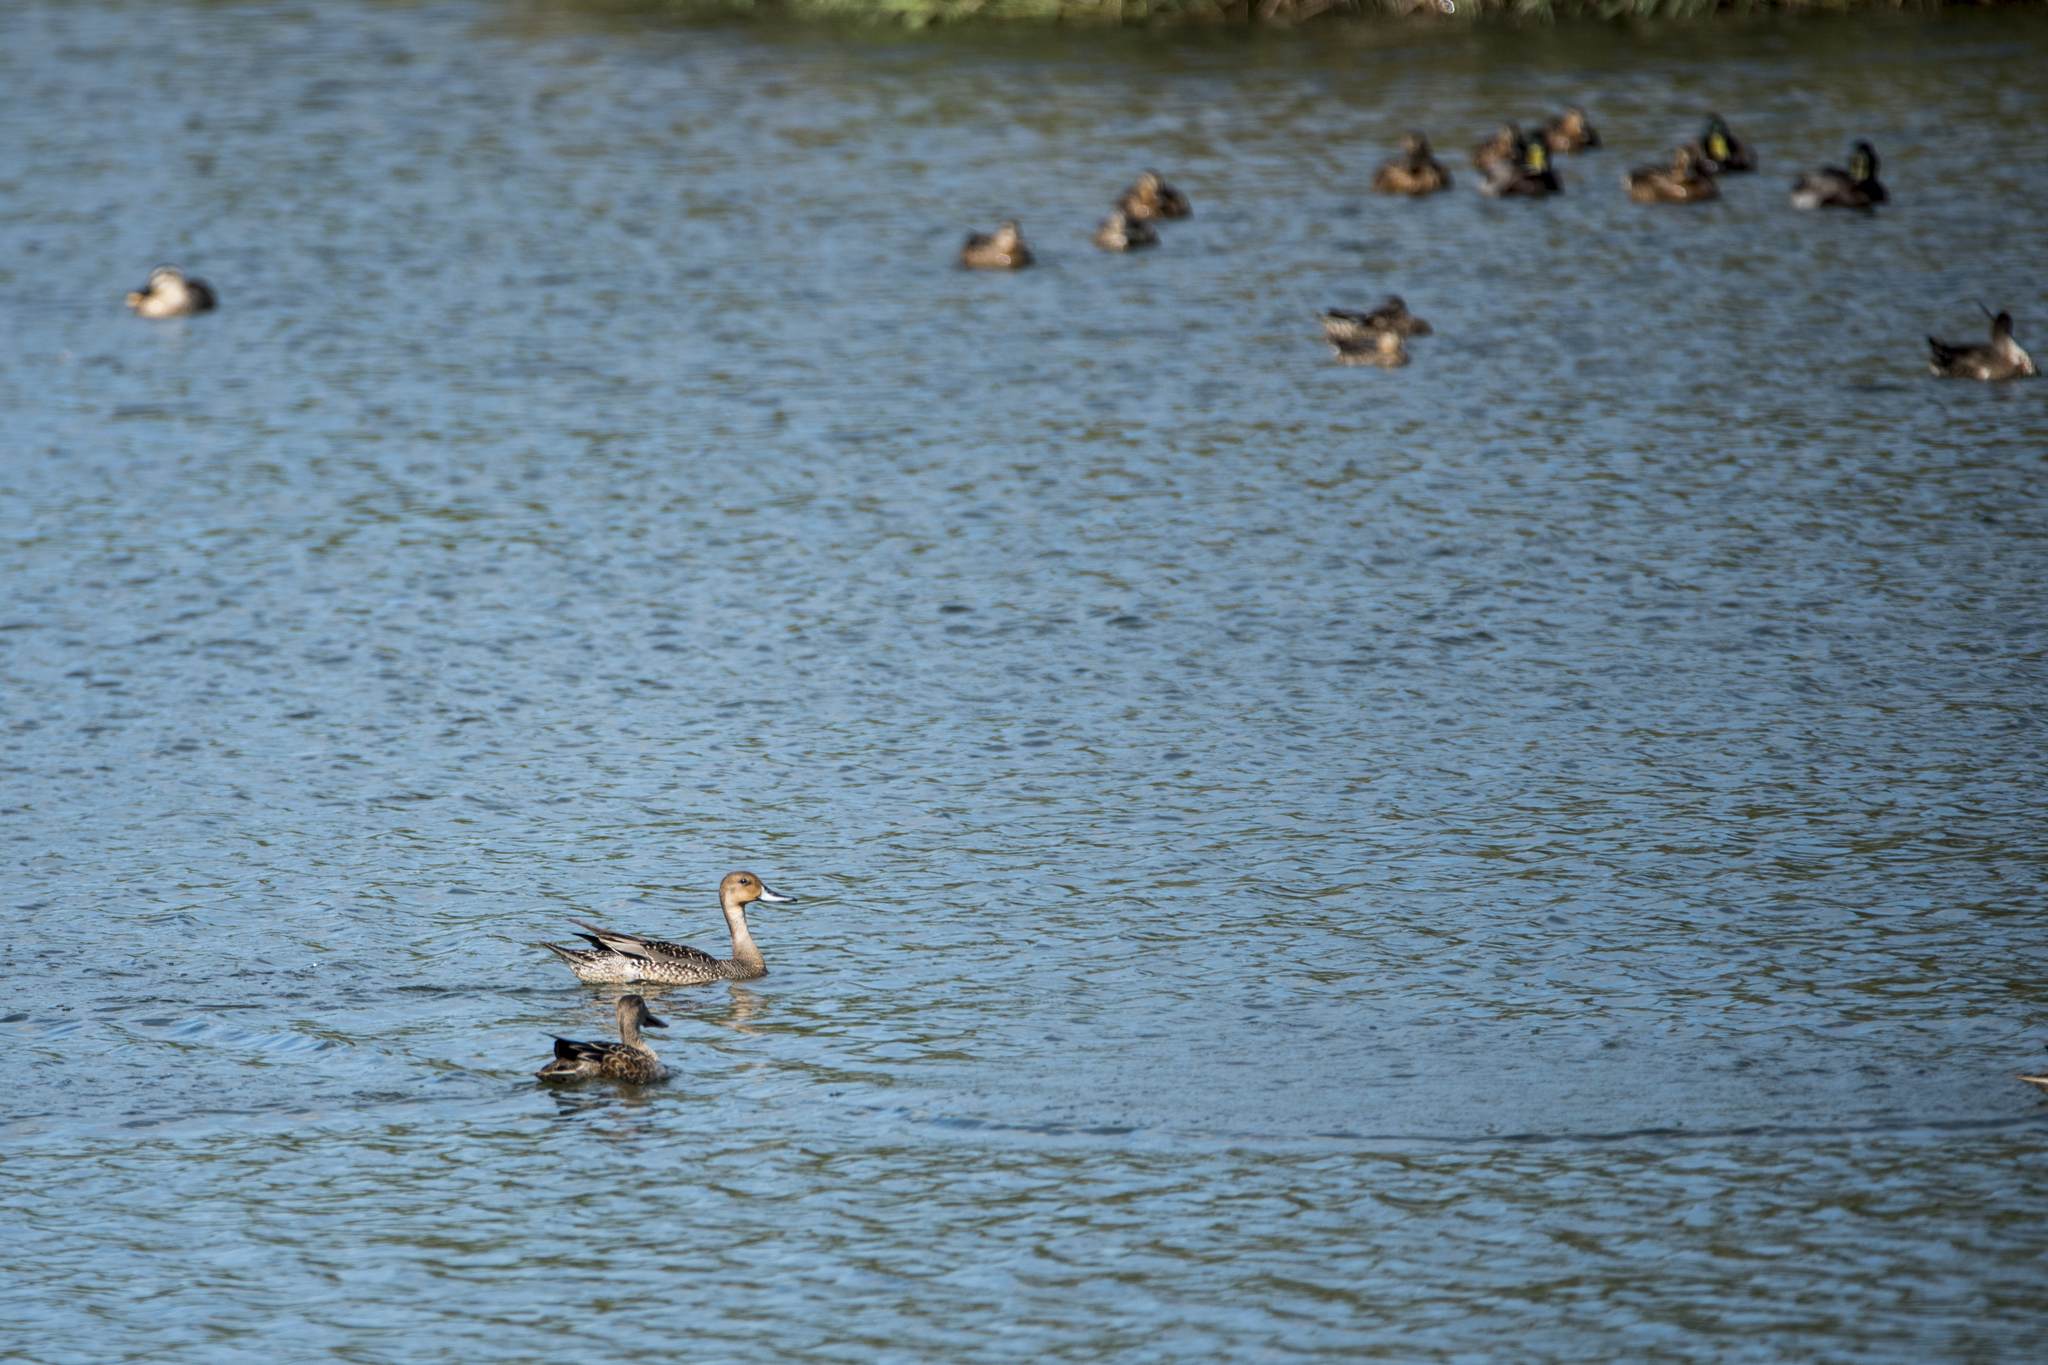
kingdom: Animalia
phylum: Chordata
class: Aves
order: Anseriformes
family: Anatidae
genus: Anas
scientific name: Anas acuta
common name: Northern pintail
